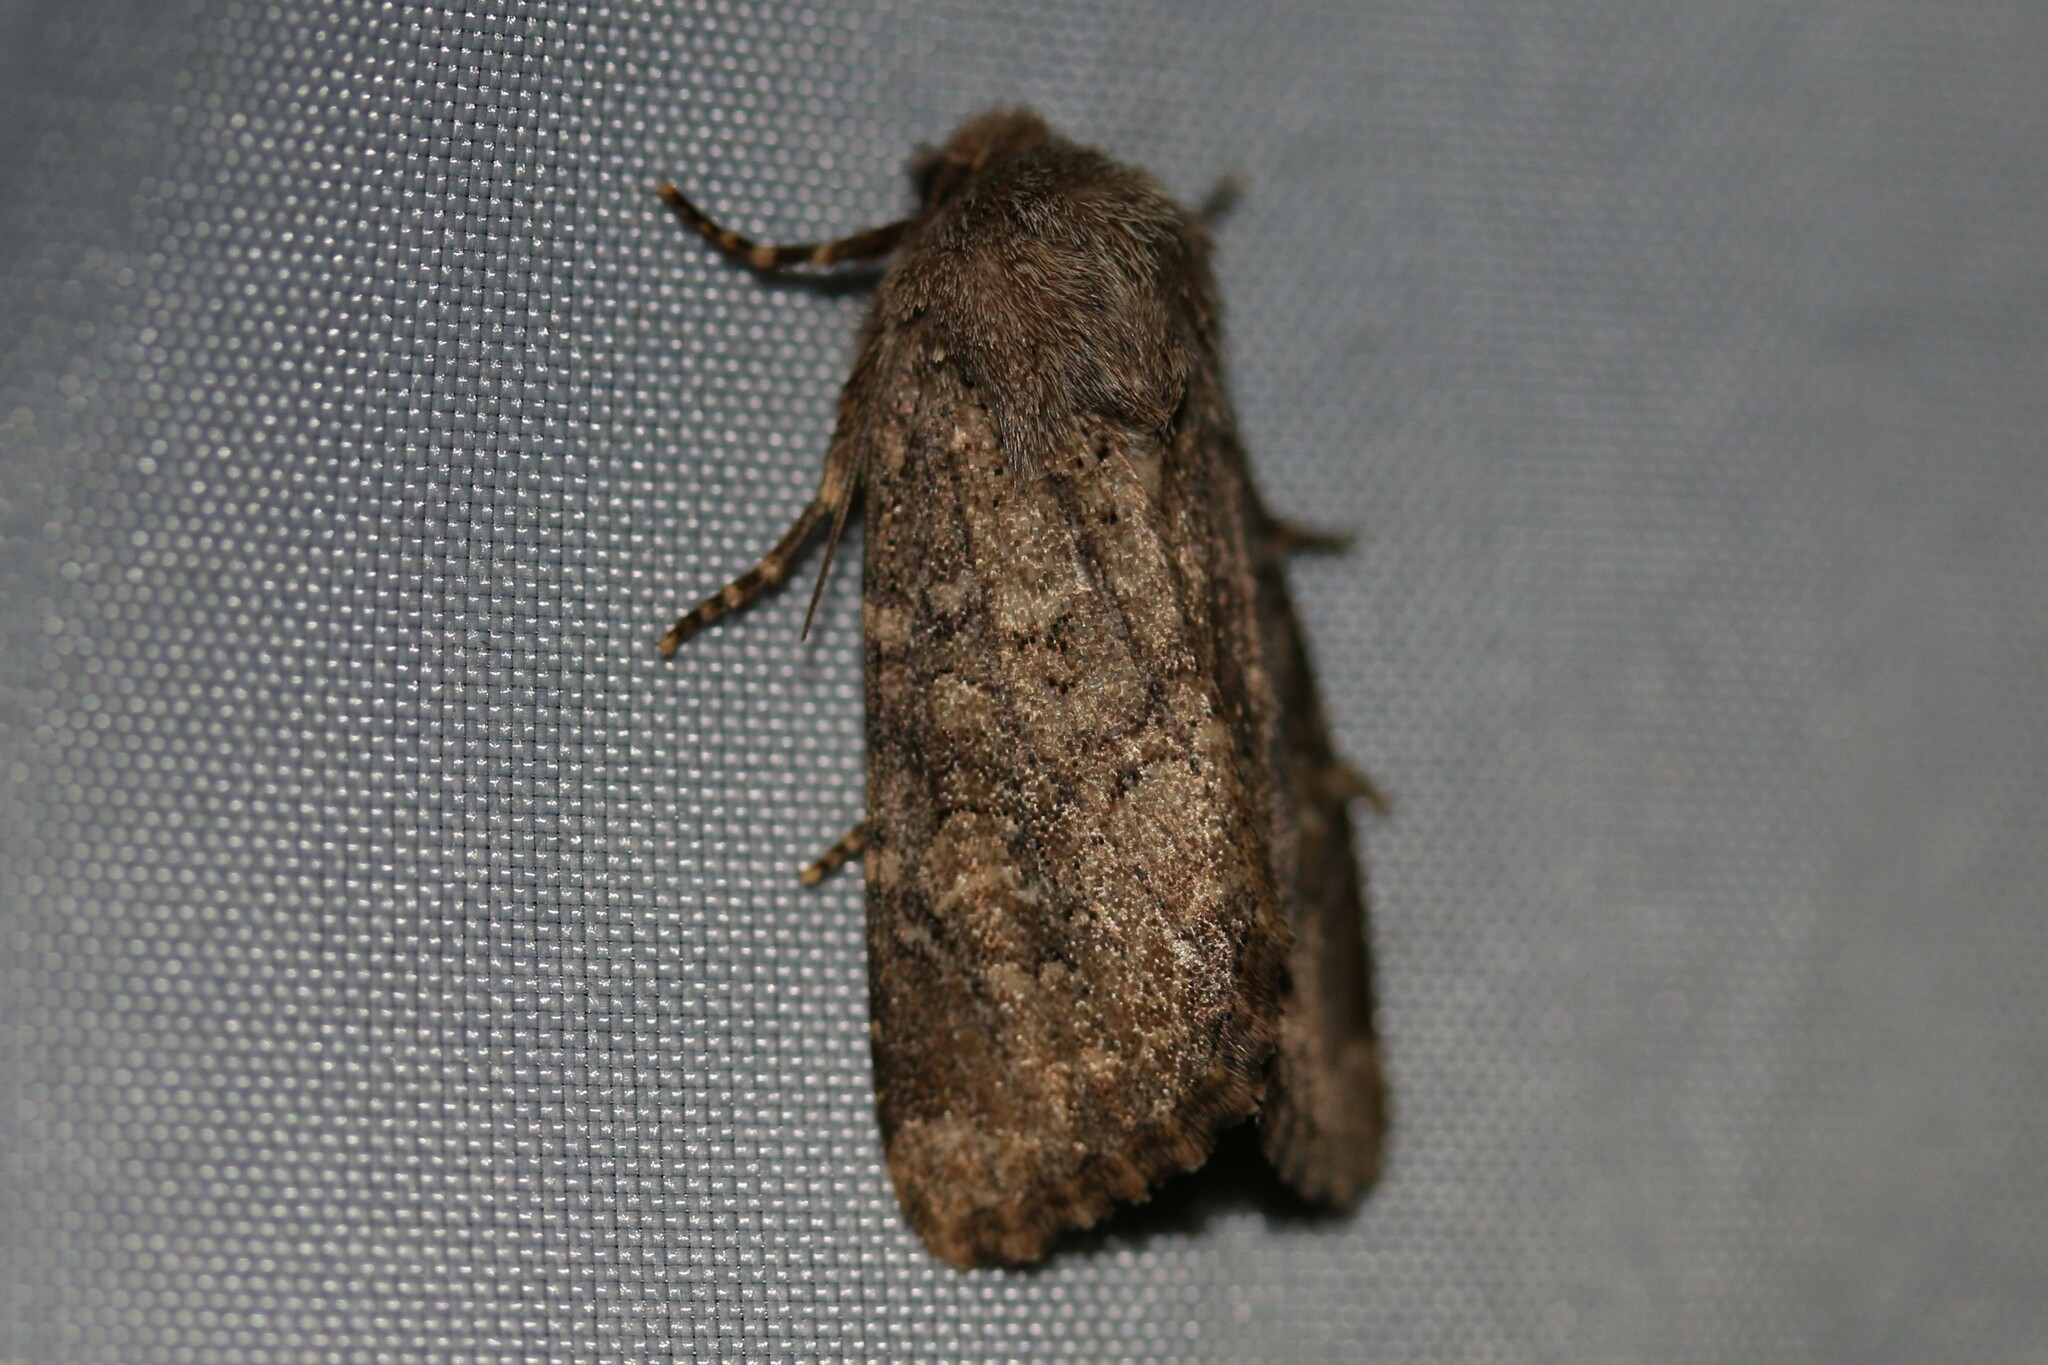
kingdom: Animalia
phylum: Arthropoda
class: Insecta
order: Lepidoptera
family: Noctuidae
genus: Luperina
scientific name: Luperina testacea
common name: Flounced rustic
